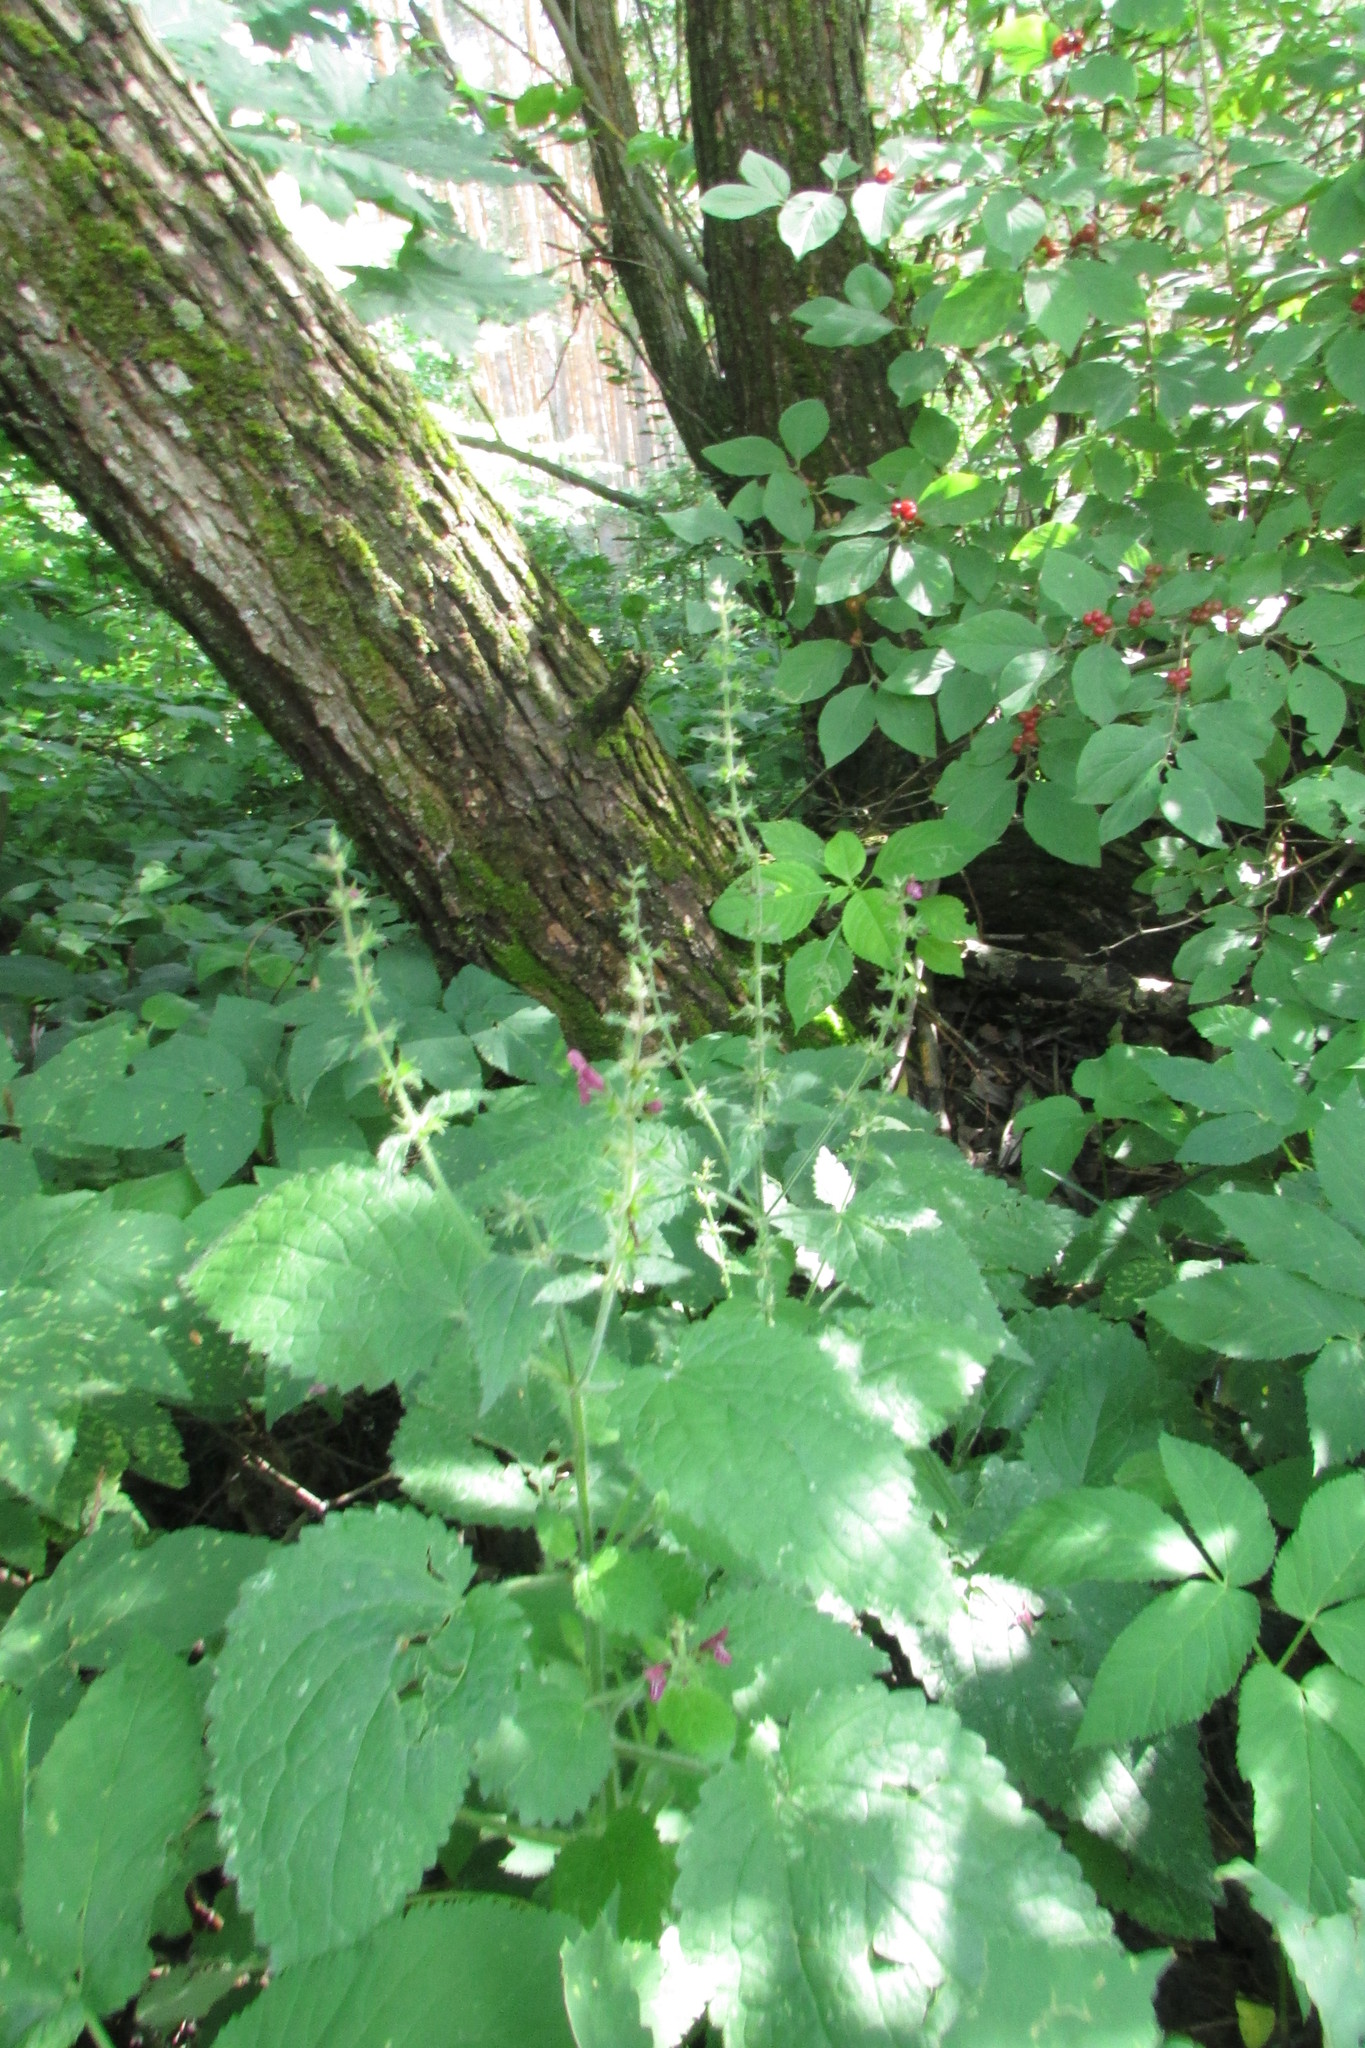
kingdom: Plantae
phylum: Tracheophyta
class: Magnoliopsida
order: Lamiales
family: Lamiaceae
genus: Stachys
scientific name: Stachys sylvatica
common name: Hedge woundwort
